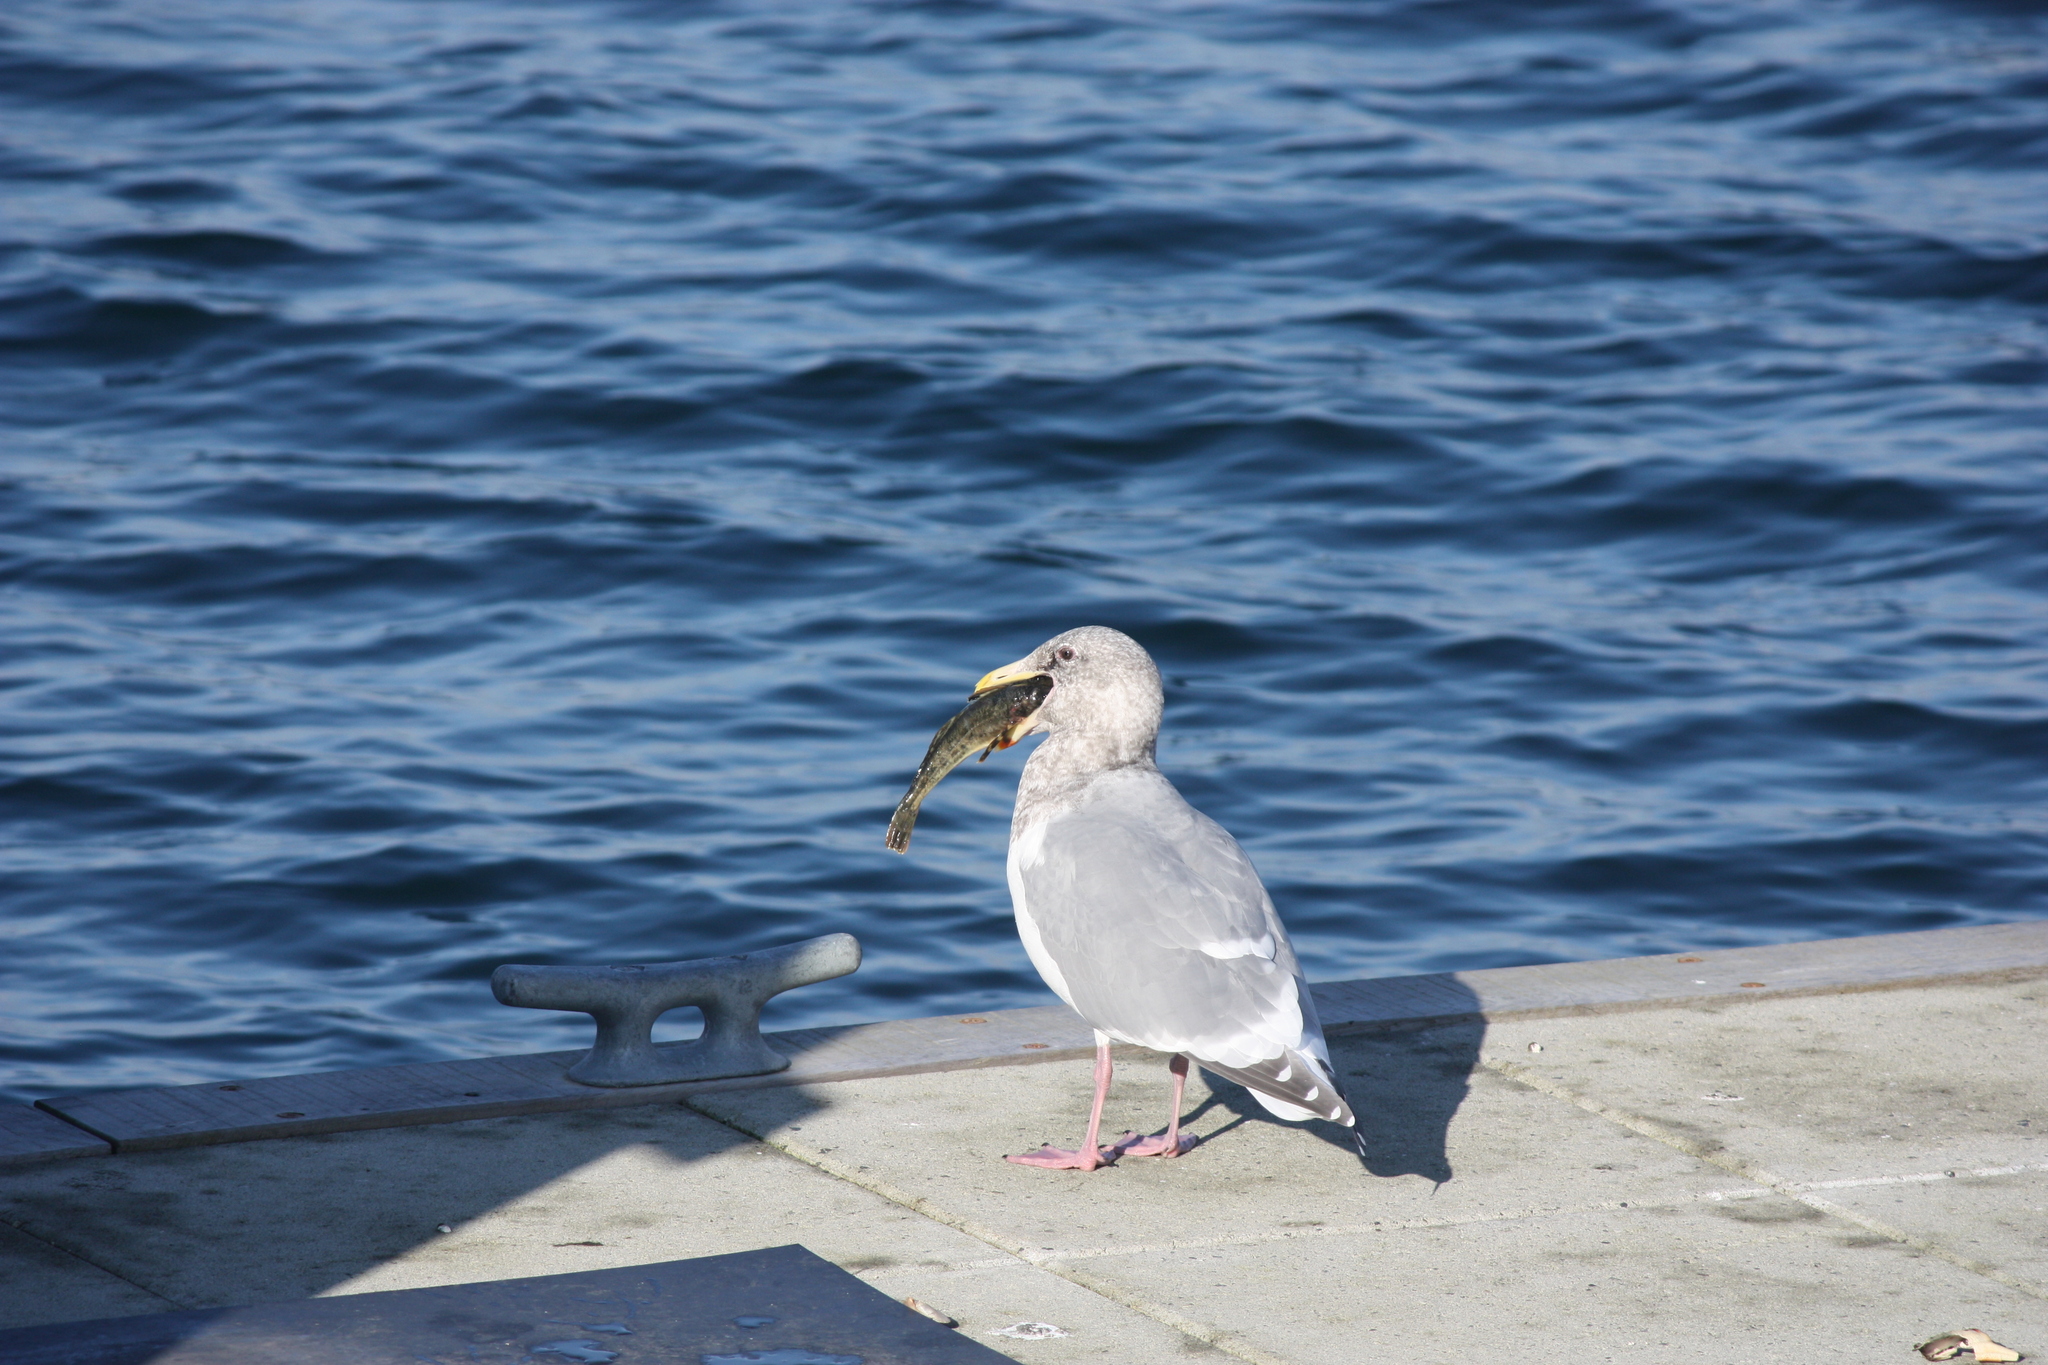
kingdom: Animalia
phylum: Chordata
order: Scorpaeniformes
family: Cottidae
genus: Leptocottus
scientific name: Leptocottus armatus
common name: Pacific staghorn sculpin
